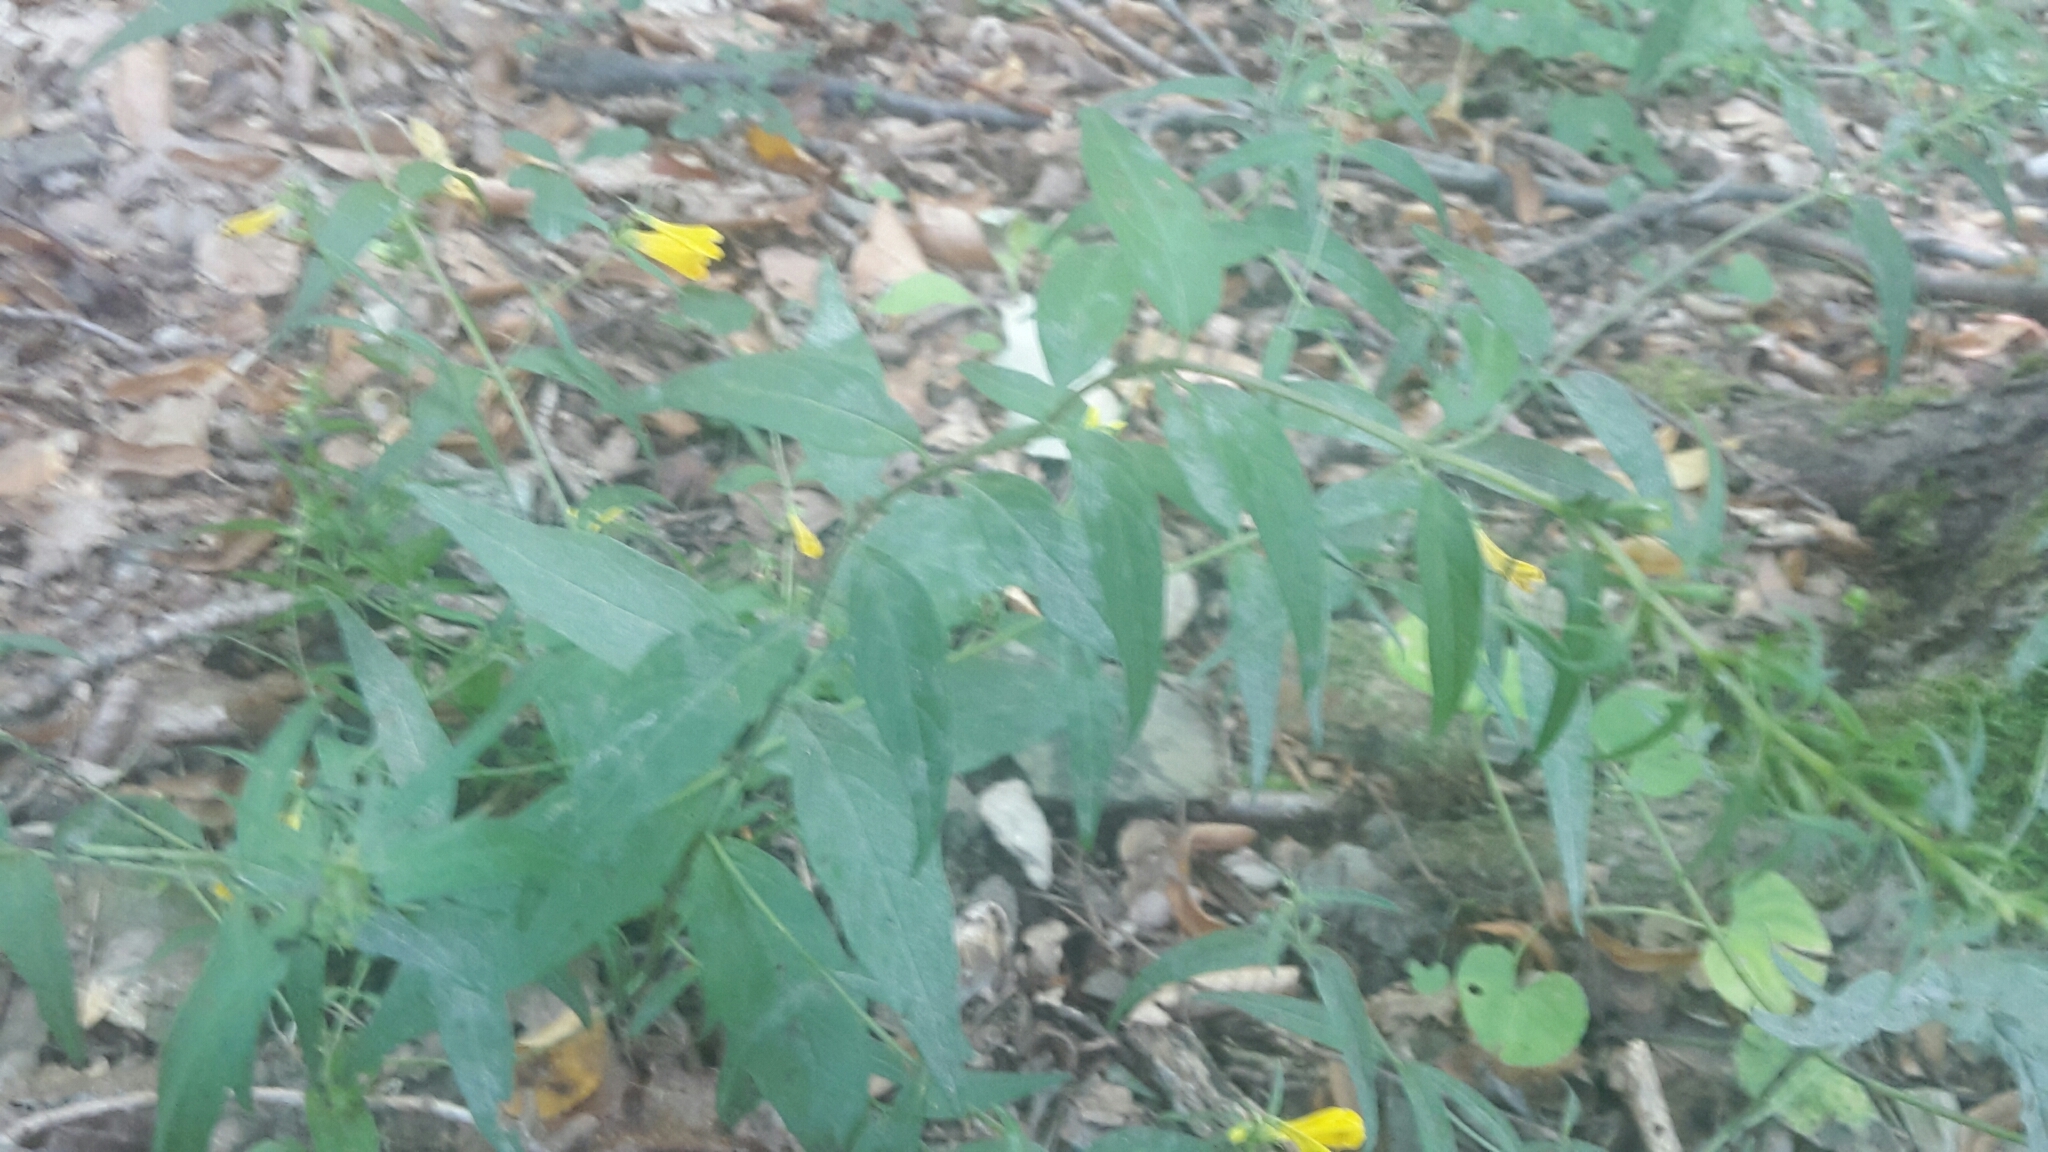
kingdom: Plantae
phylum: Tracheophyta
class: Magnoliopsida
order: Lamiales
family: Orobanchaceae
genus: Melampyrum
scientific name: Melampyrum pratense
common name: Common cow-wheat
